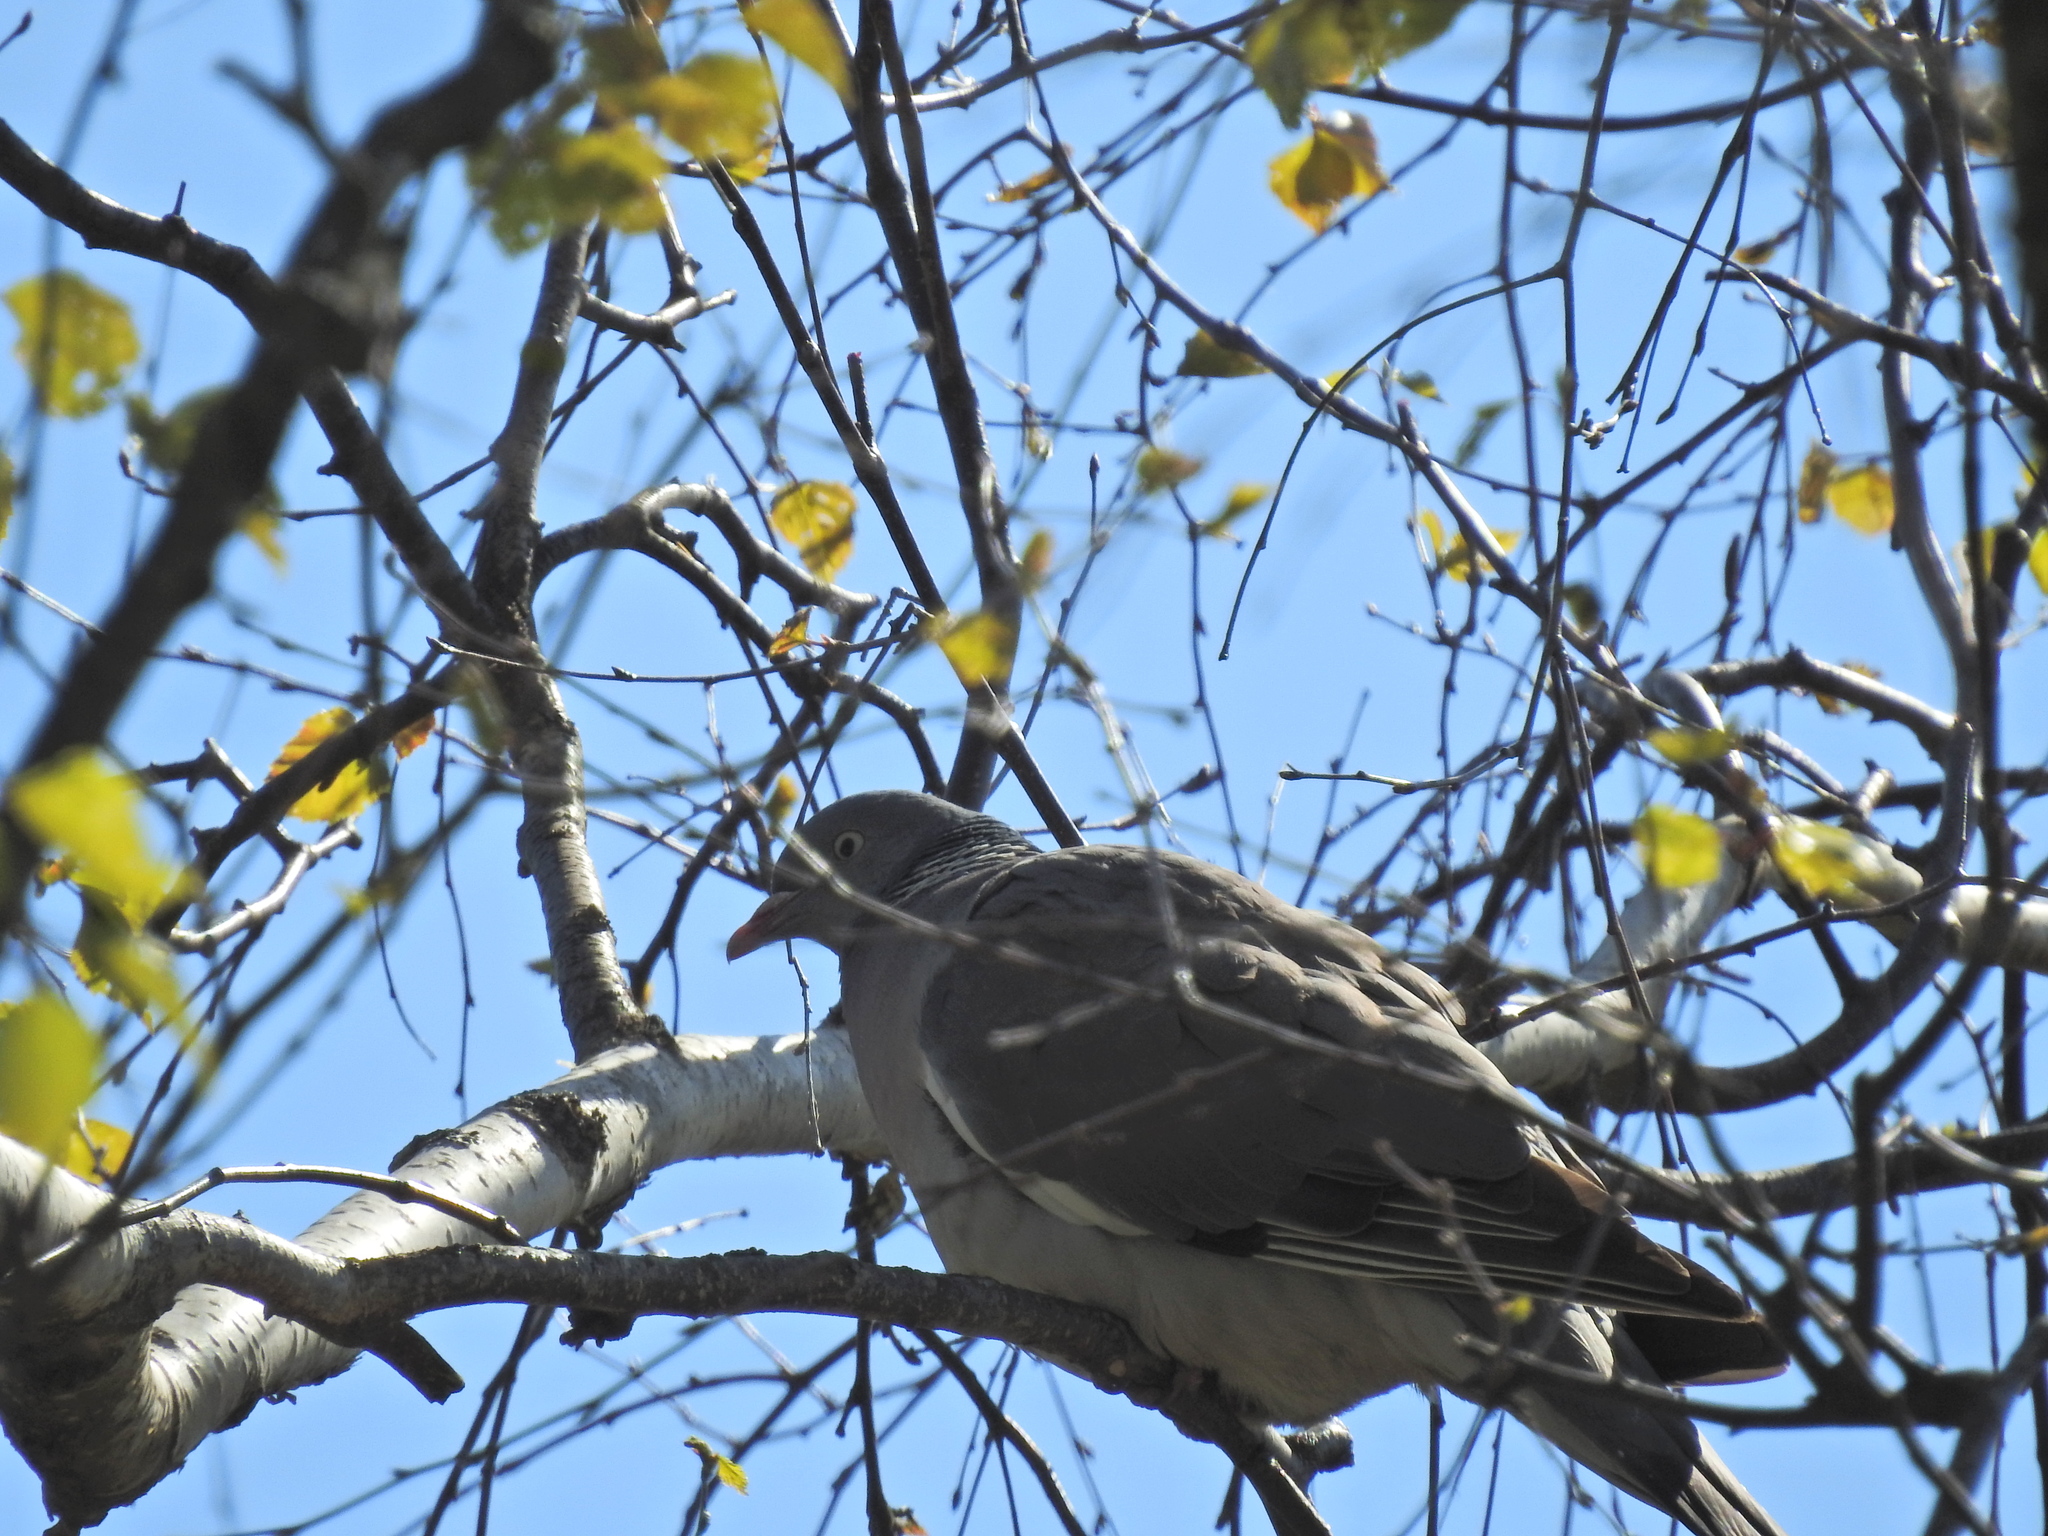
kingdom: Animalia
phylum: Chordata
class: Aves
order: Columbiformes
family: Columbidae
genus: Columba
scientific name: Columba palumbus
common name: Common wood pigeon
